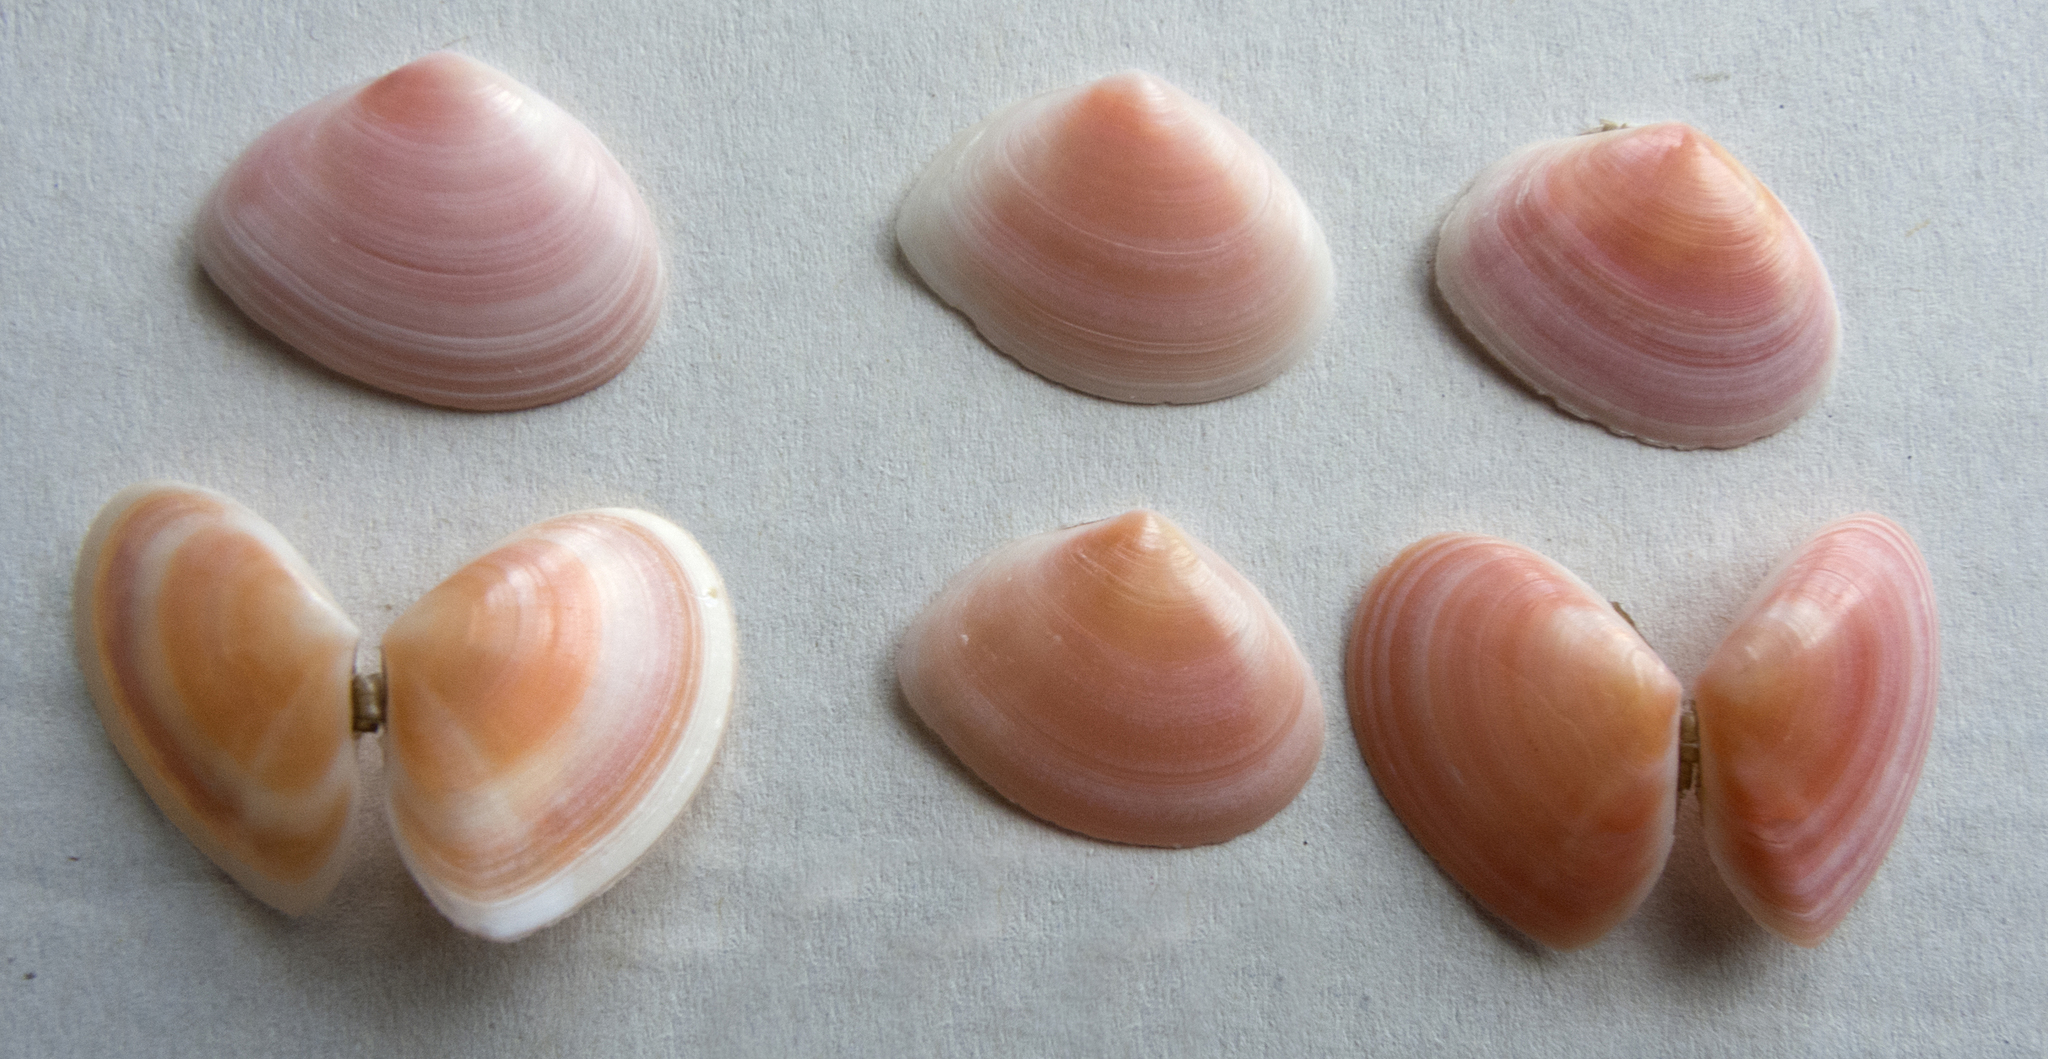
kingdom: Animalia
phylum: Mollusca
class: Bivalvia
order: Cardiida
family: Tellinidae
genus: Macomangulus
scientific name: Macomangulus tenuis
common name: Thin tellin
